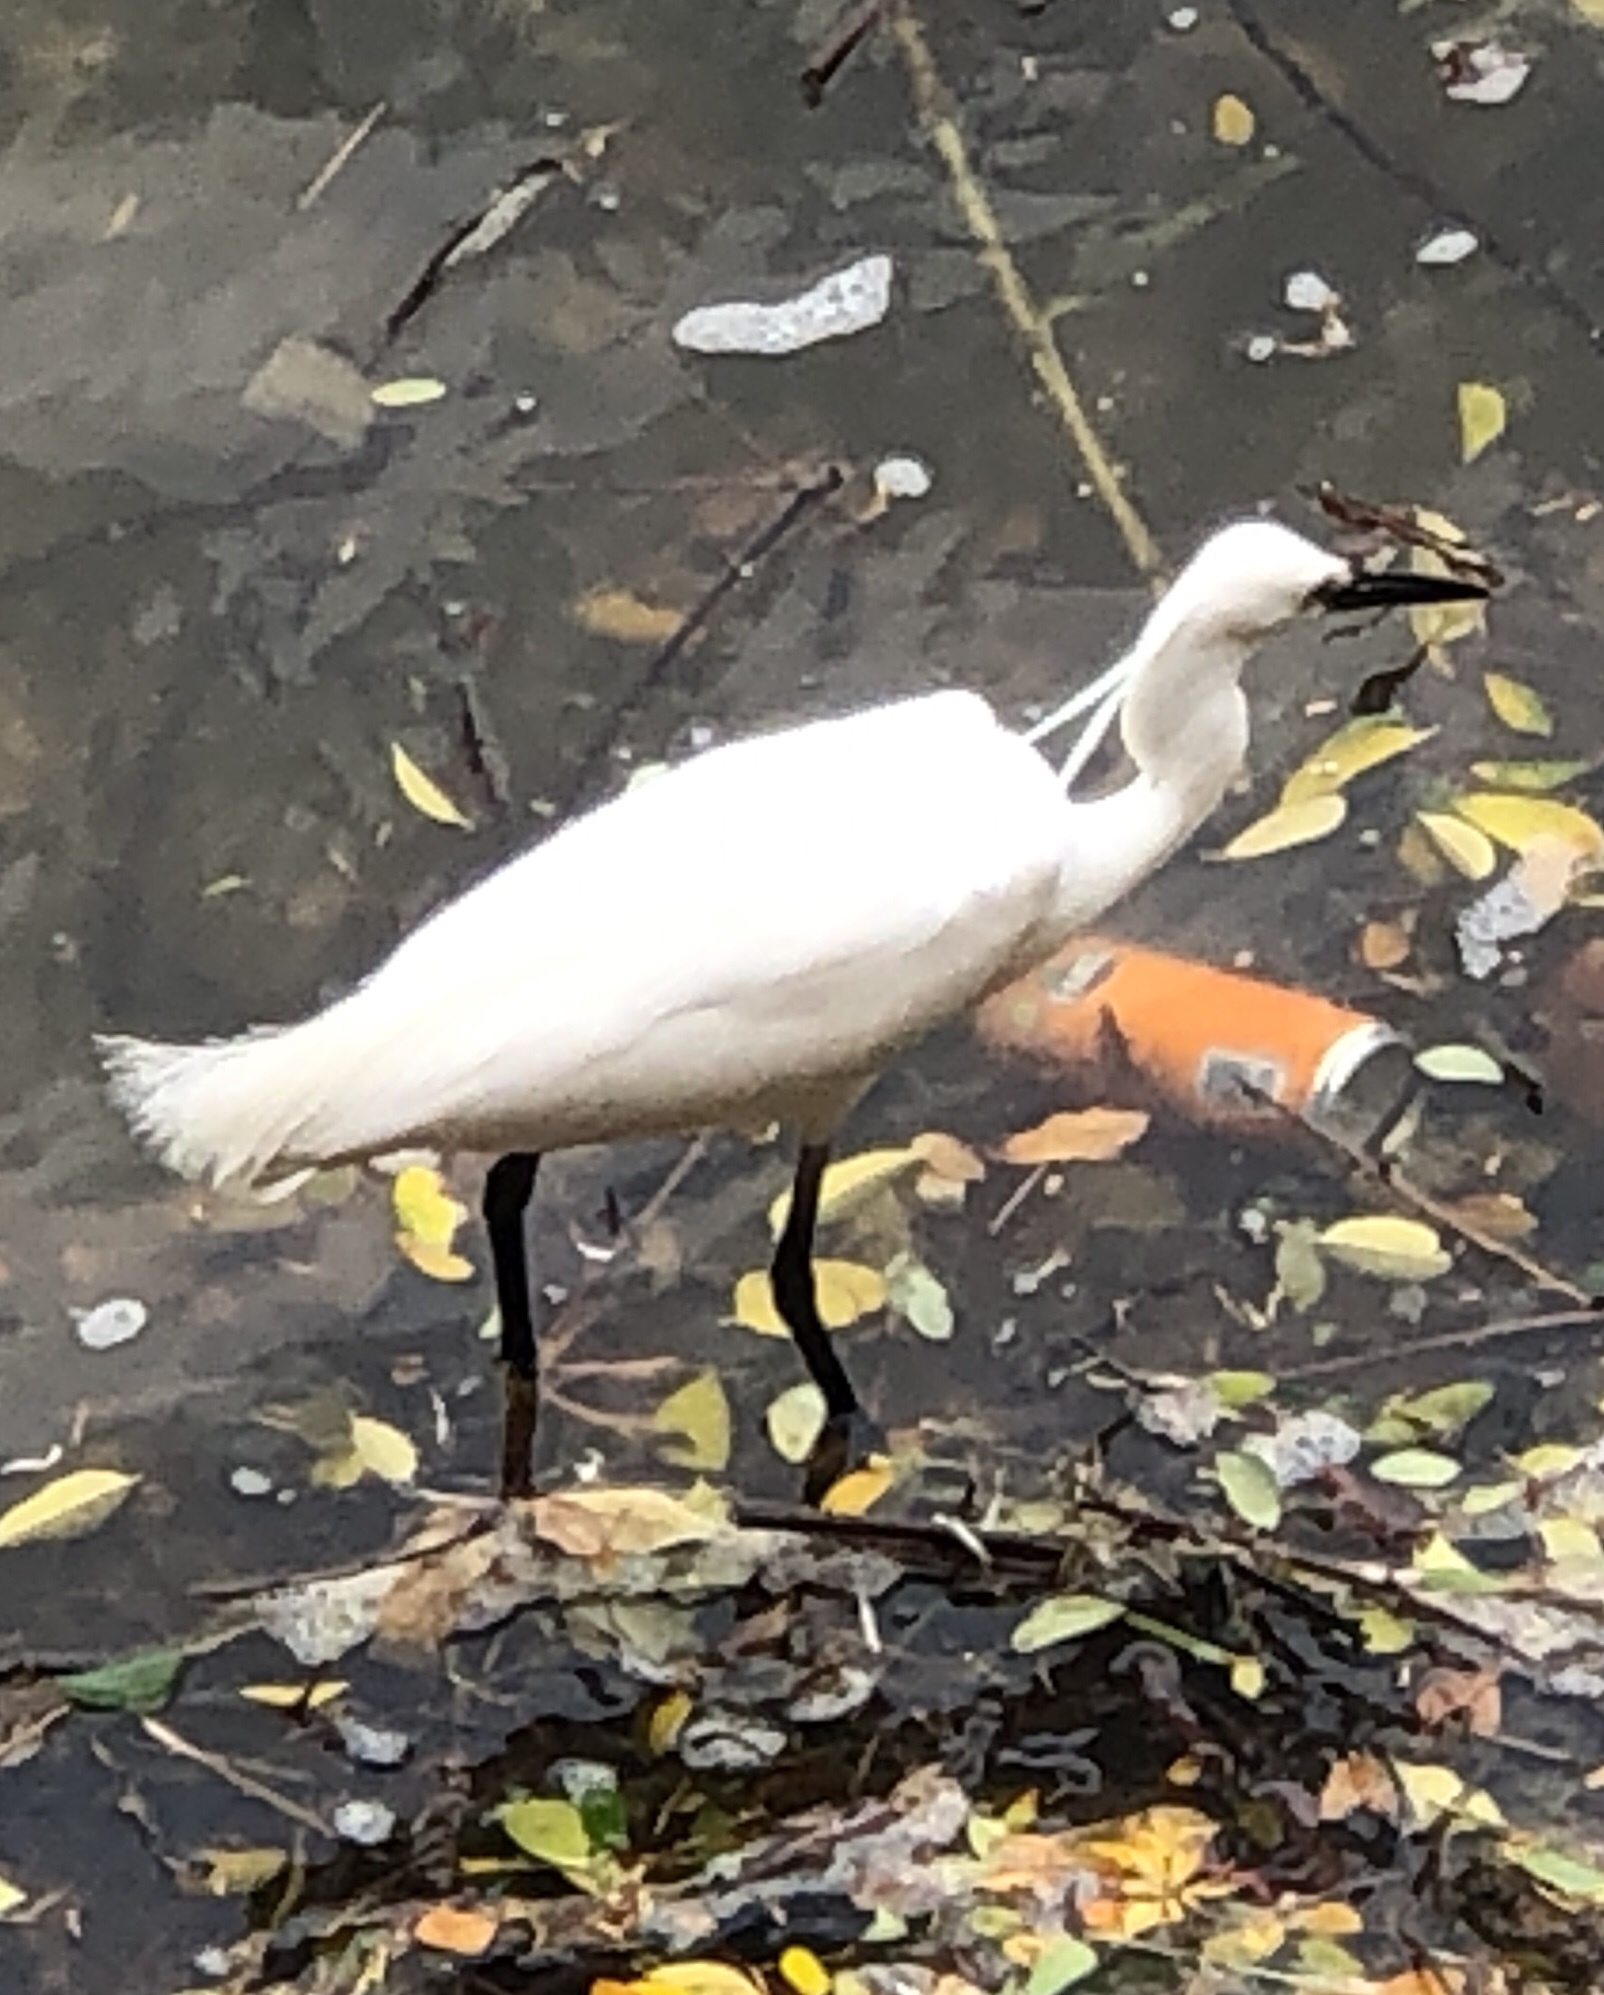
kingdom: Animalia
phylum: Chordata
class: Aves
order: Pelecaniformes
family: Ardeidae
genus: Egretta
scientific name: Egretta garzetta
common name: Little egret
